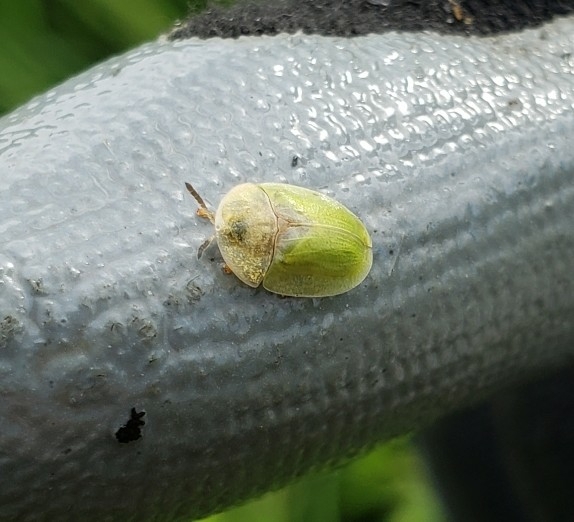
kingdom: Animalia
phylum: Arthropoda
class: Insecta
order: Coleoptera
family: Chrysomelidae
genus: Cassida
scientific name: Cassida rubiginosa
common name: Thistle tortoise beetle
